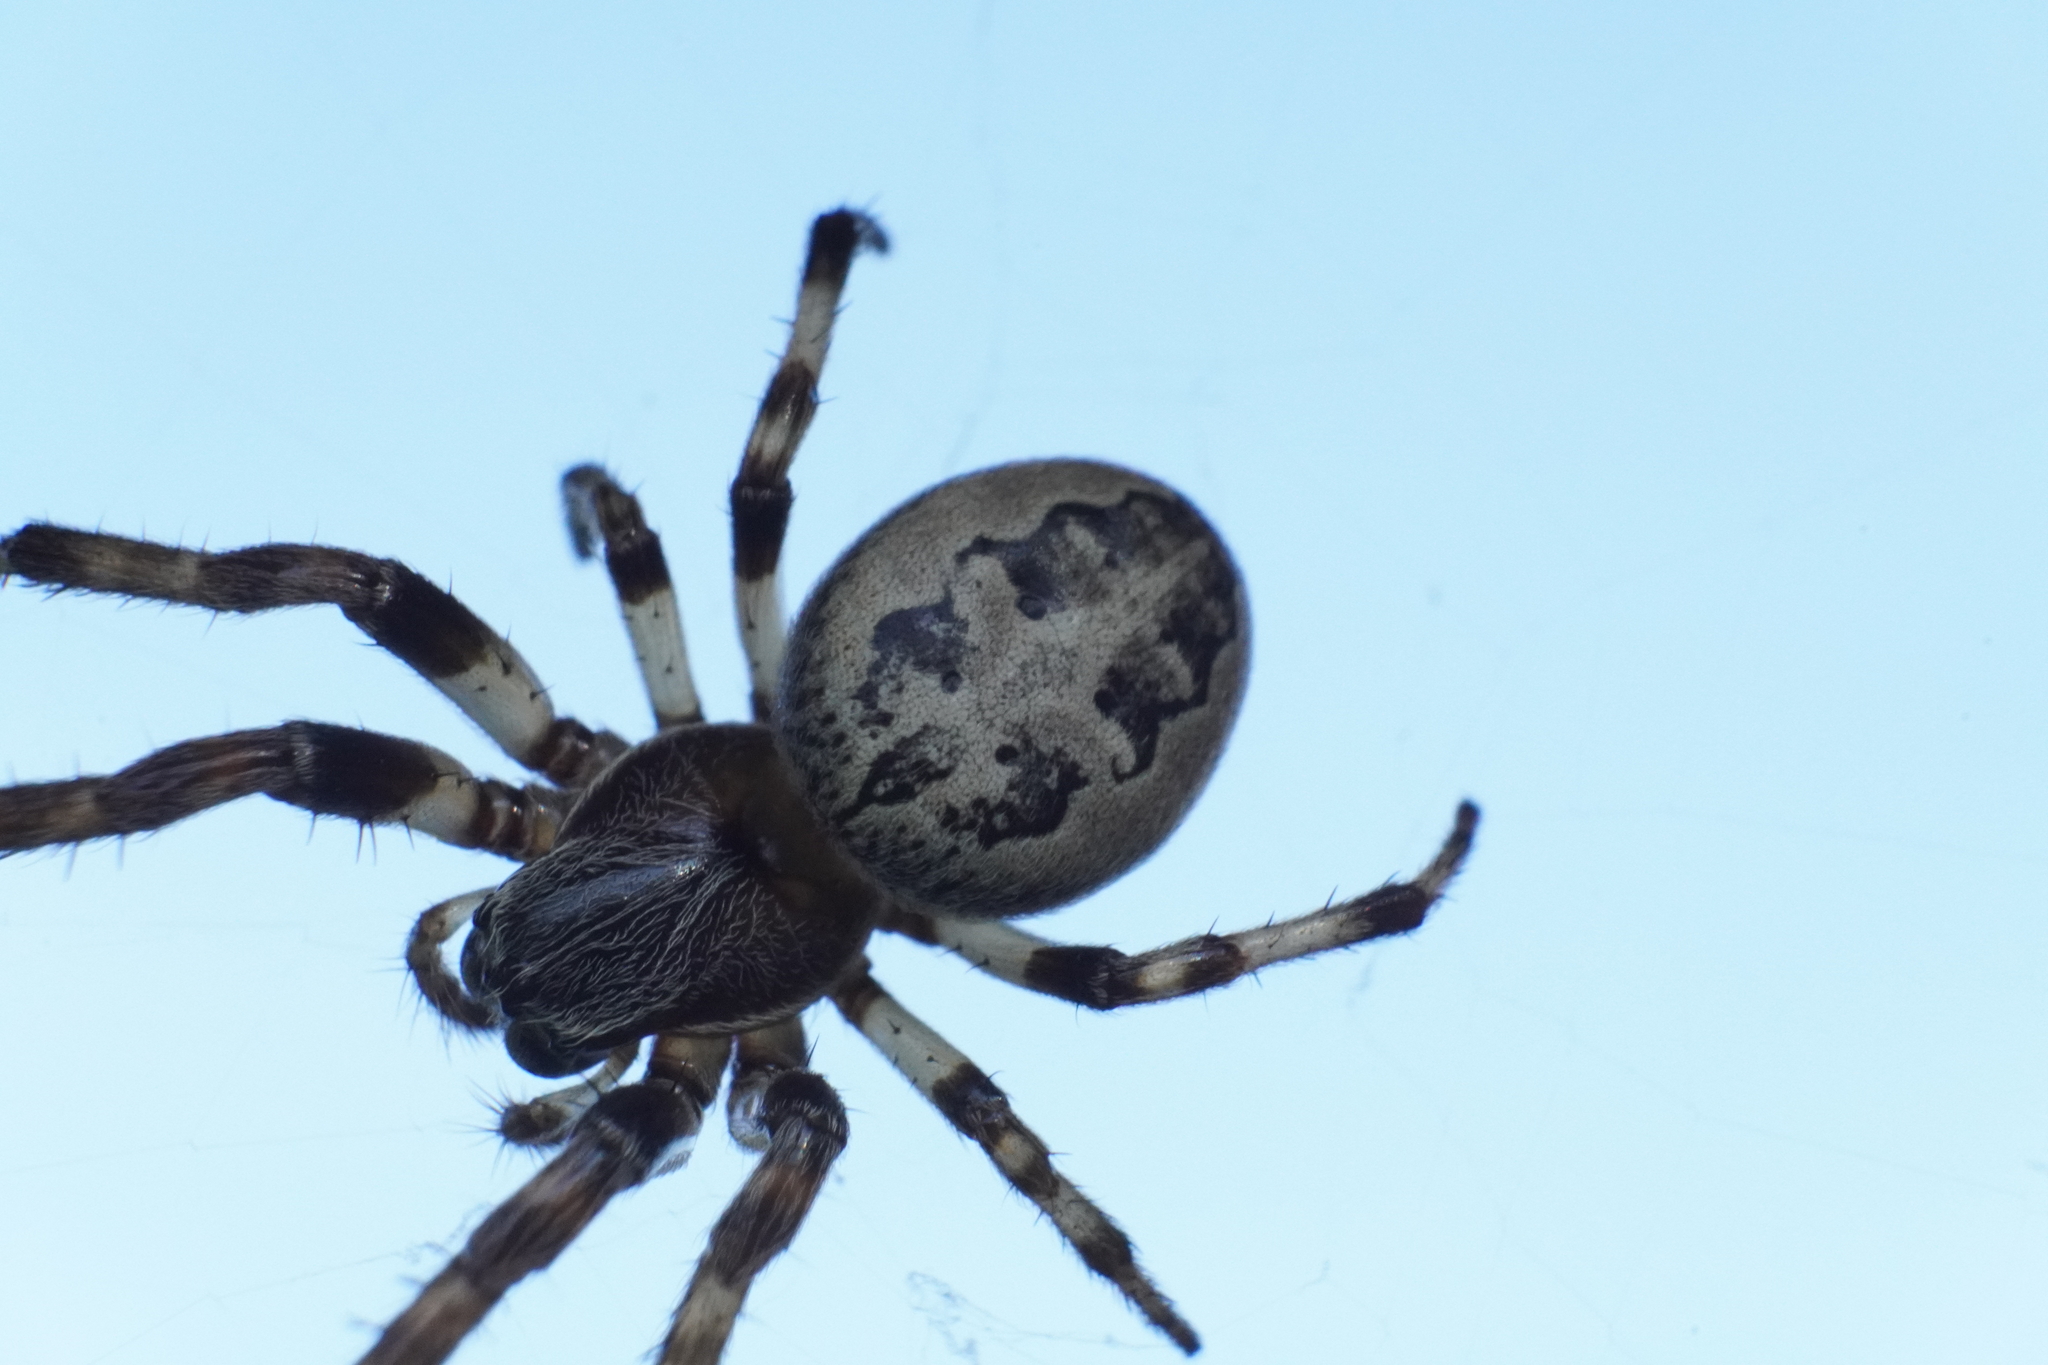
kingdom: Animalia
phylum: Arthropoda
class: Arachnida
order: Araneae
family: Araneidae
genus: Larinioides
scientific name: Larinioides cornutus
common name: Furrow orbweaver
